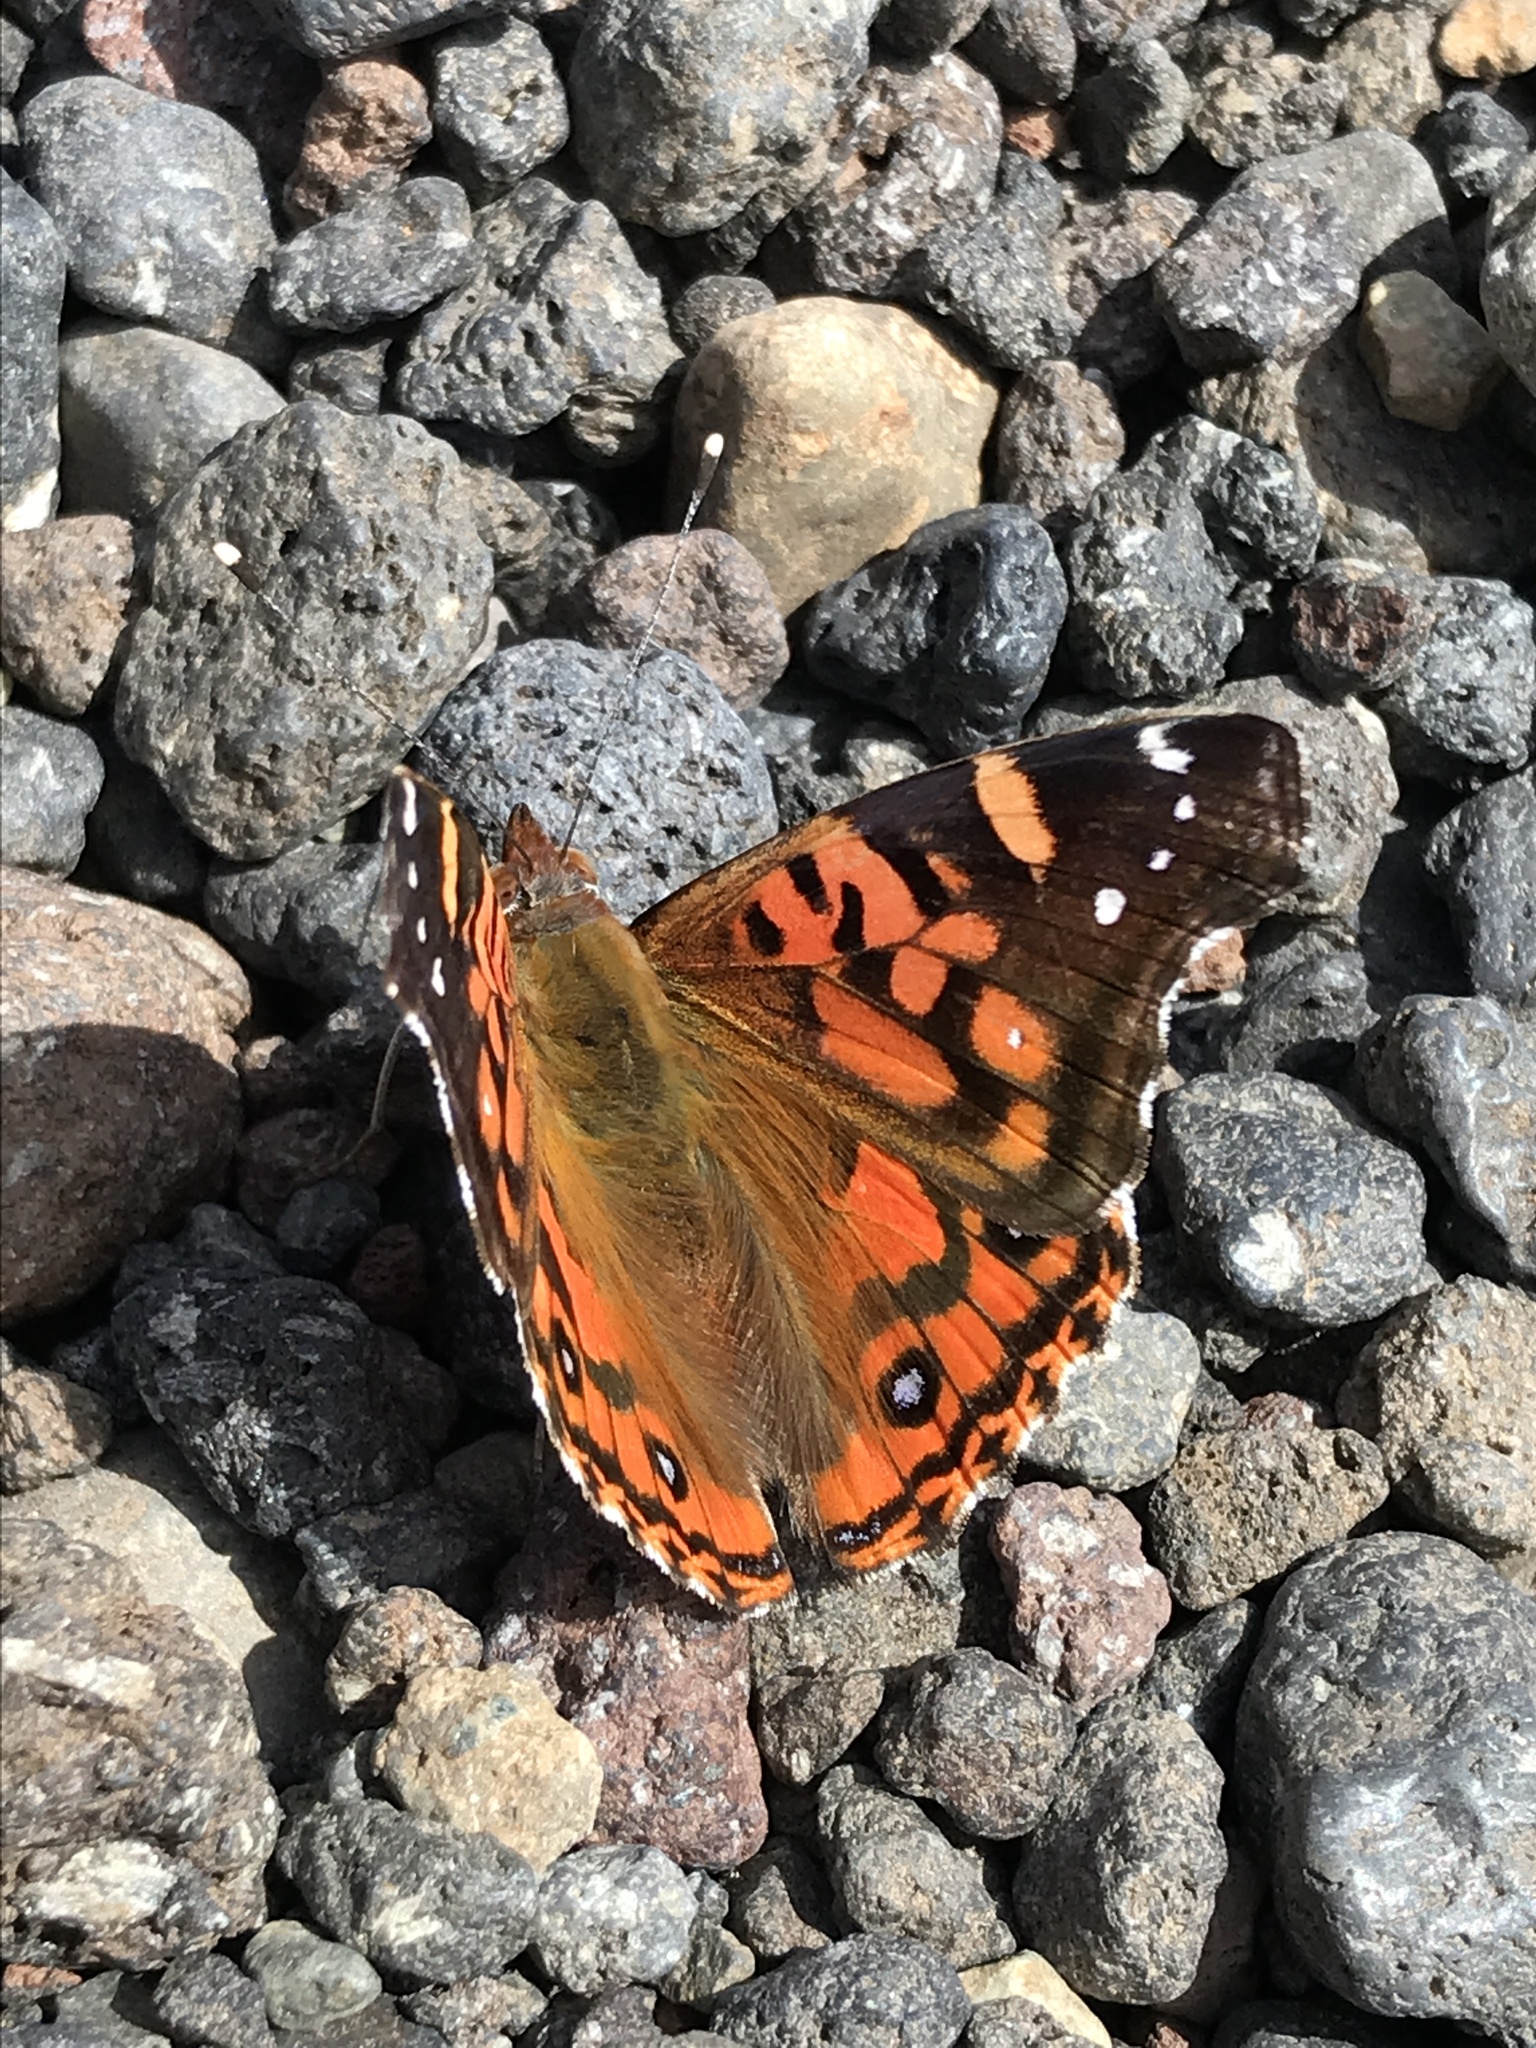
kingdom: Animalia
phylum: Arthropoda
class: Insecta
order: Lepidoptera
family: Nymphalidae
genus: Vanessa
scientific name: Vanessa terpsichore
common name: Chilean lady
